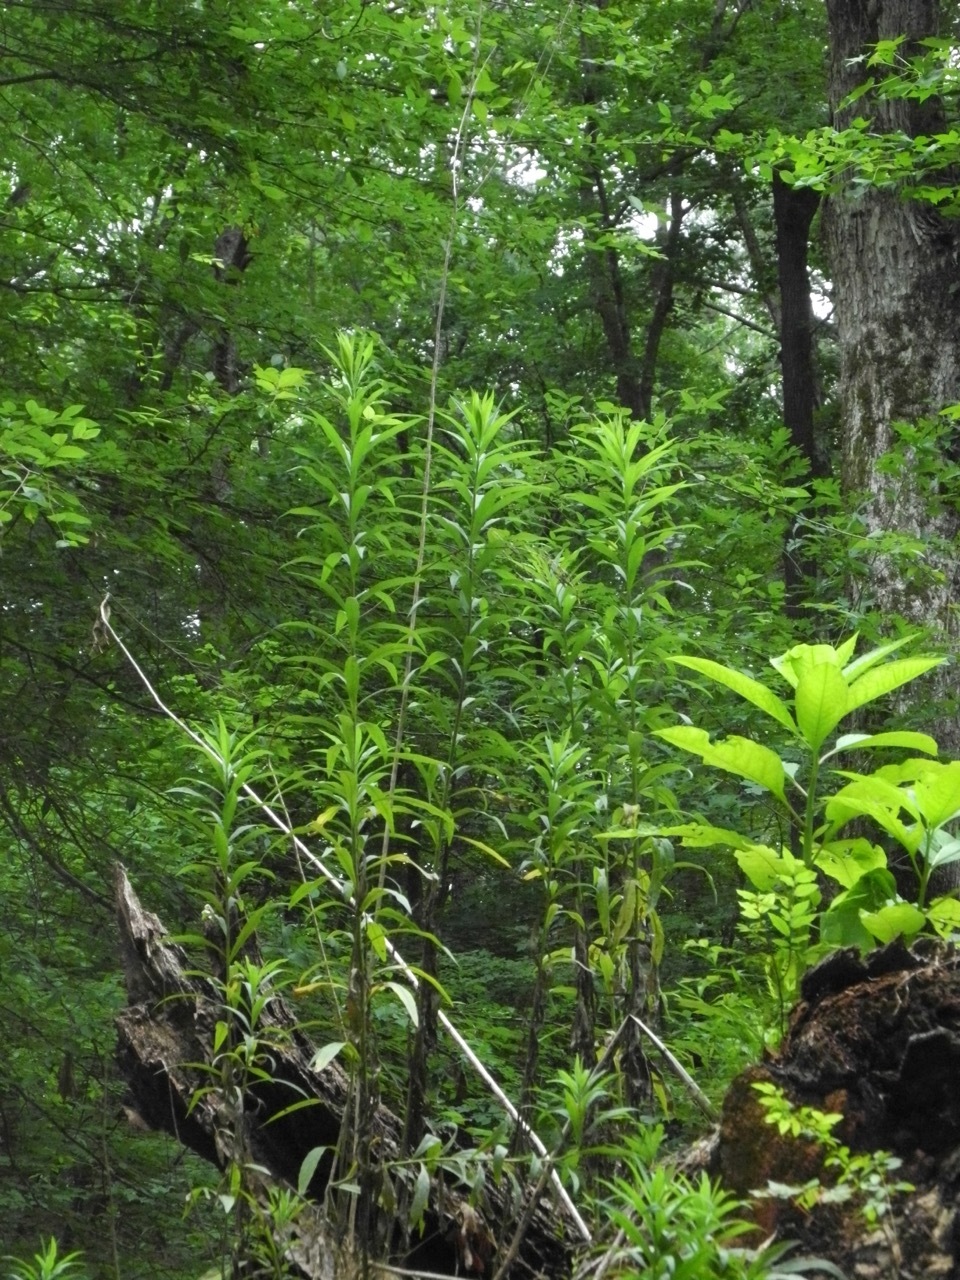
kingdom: Plantae
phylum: Tracheophyta
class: Magnoliopsida
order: Asterales
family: Asteraceae
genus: Solidago
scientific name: Solidago altissima
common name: Late goldenrod
